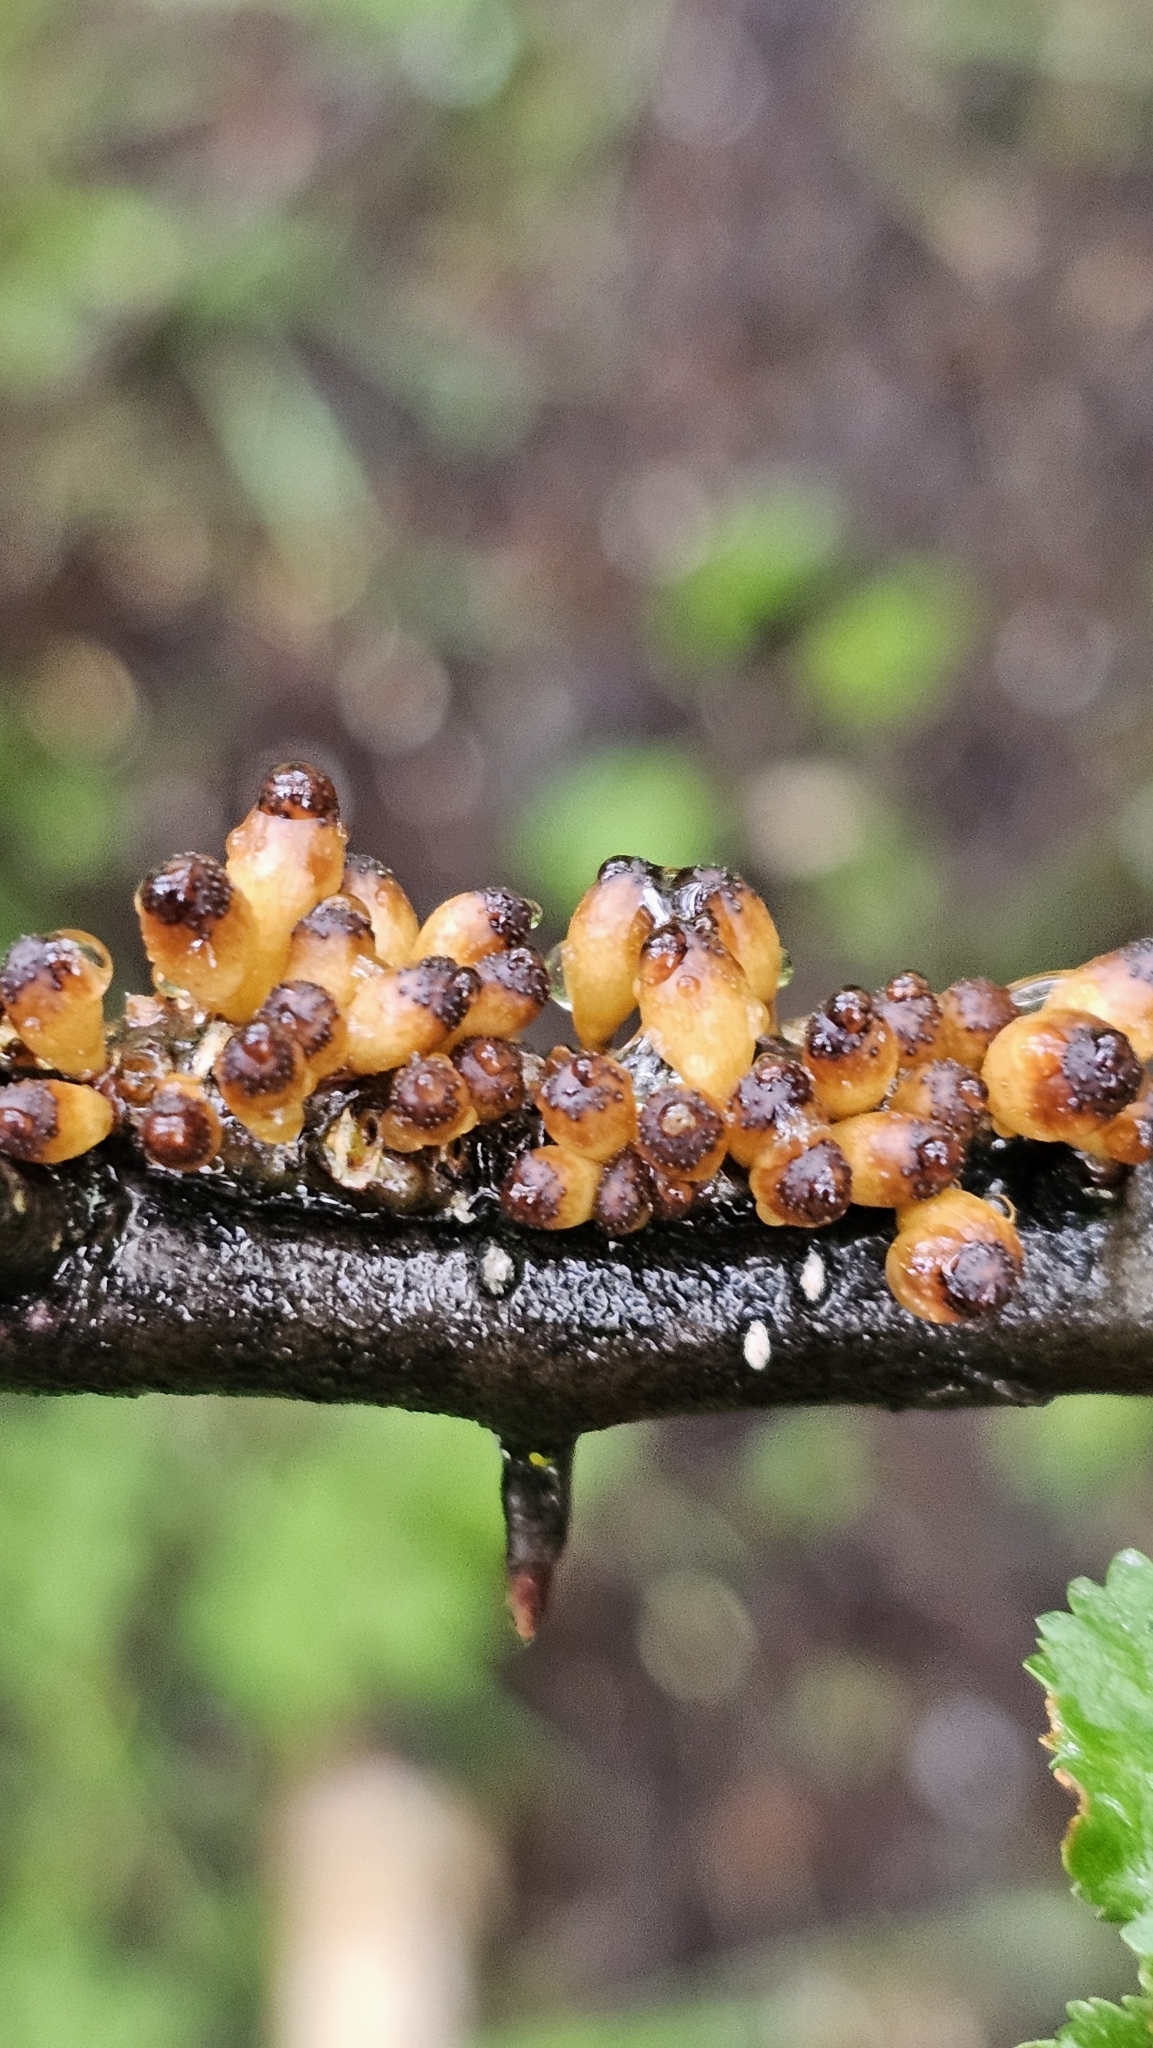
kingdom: Fungi
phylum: Ascomycota
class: Leotiomycetes
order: Cyttariales
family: Cyttariaceae
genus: Cyttaria
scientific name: Cyttaria hookeri
